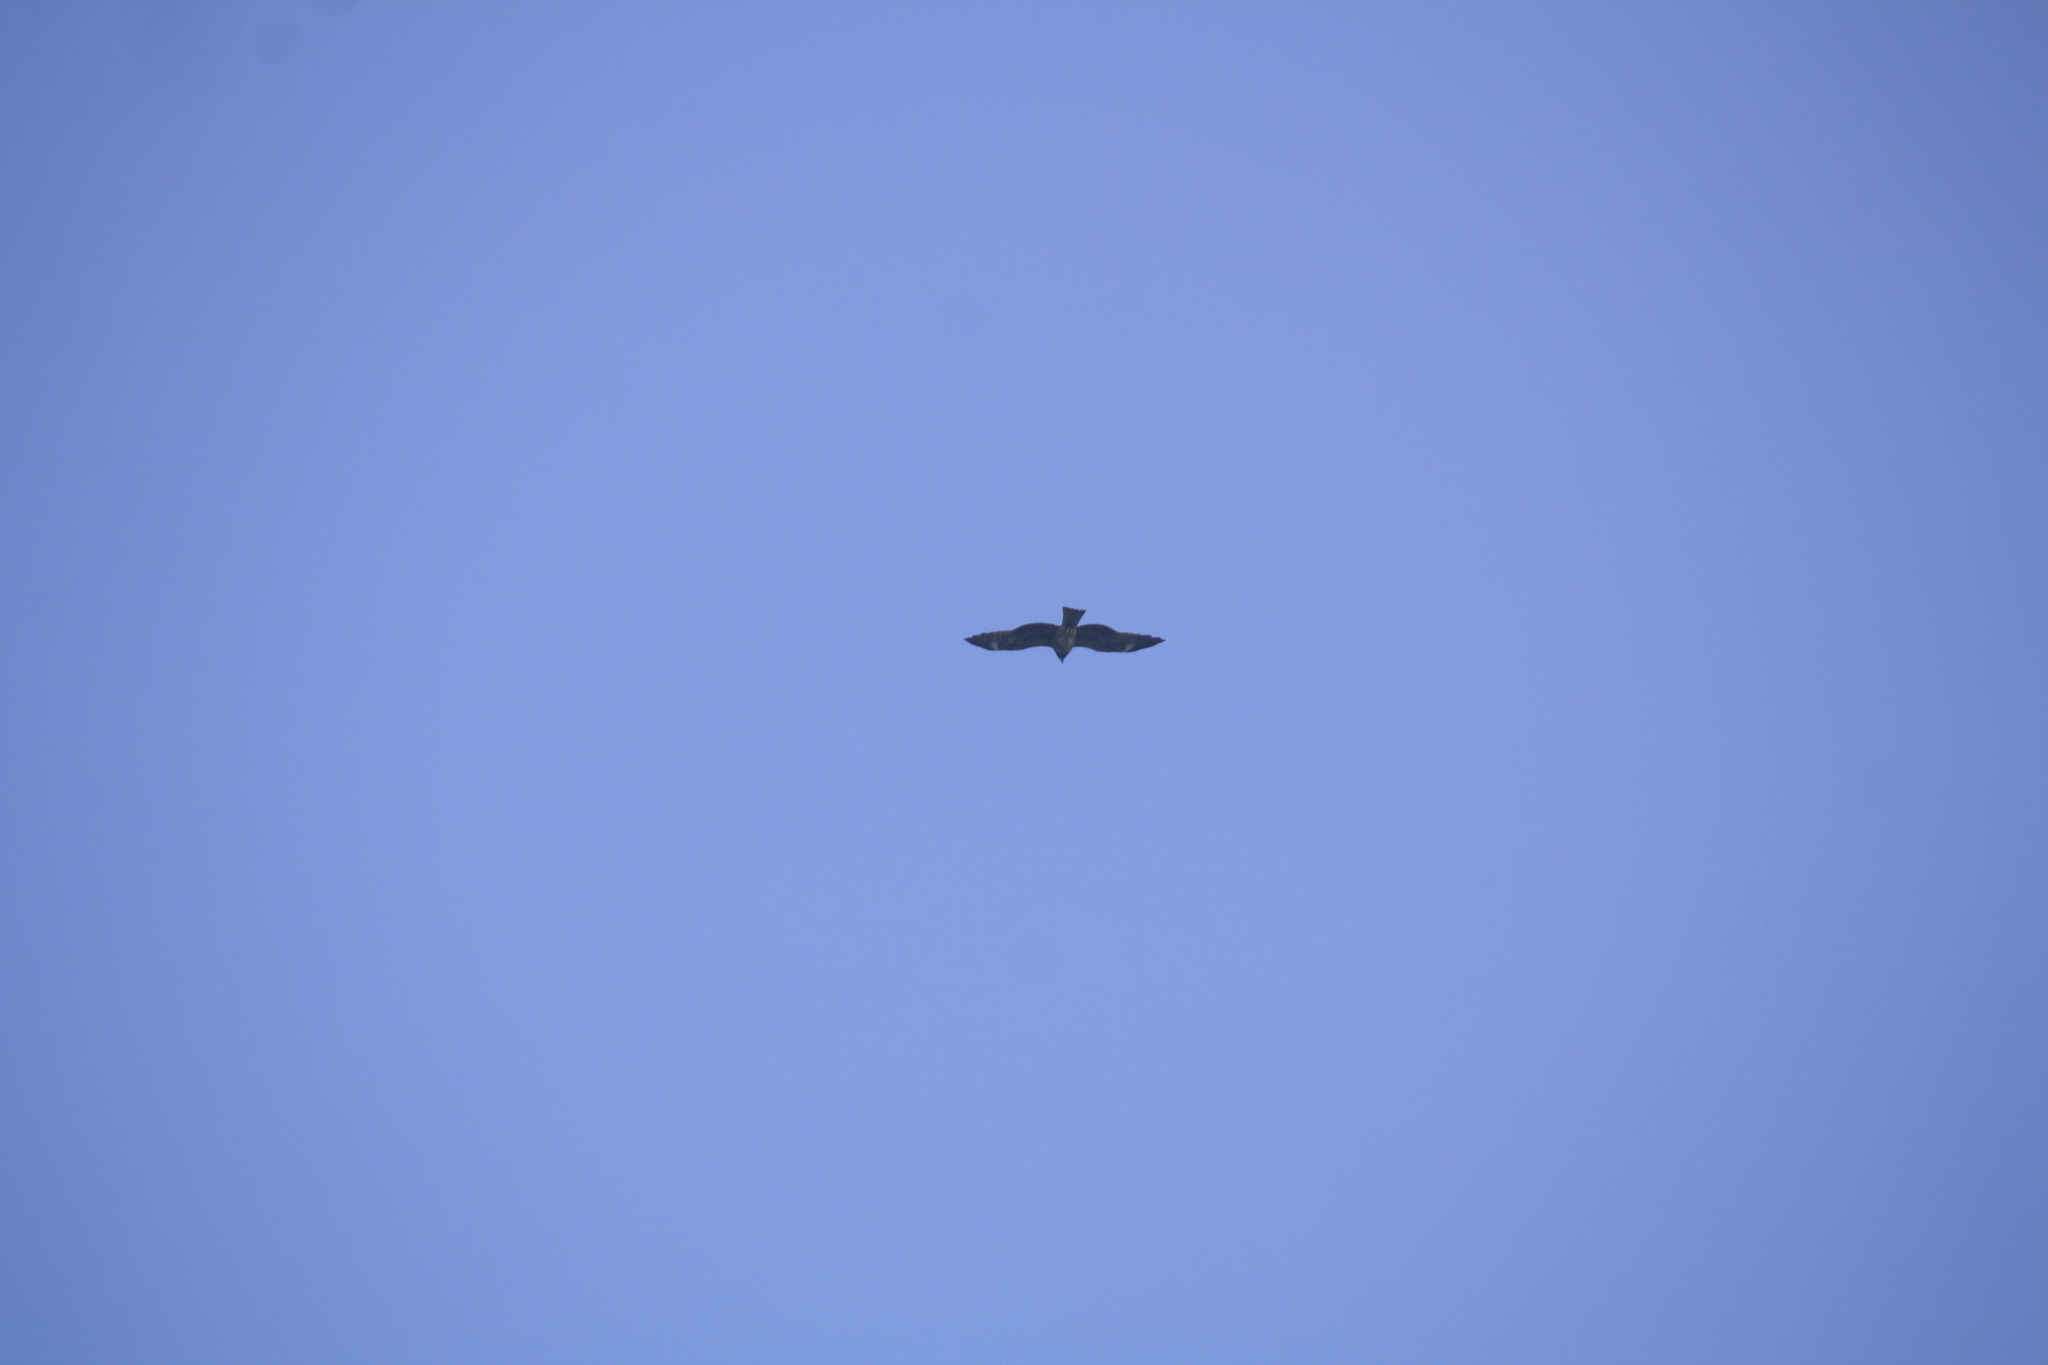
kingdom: Animalia
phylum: Chordata
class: Aves
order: Accipitriformes
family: Accipitridae
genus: Milvus
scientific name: Milvus migrans
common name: Black kite
